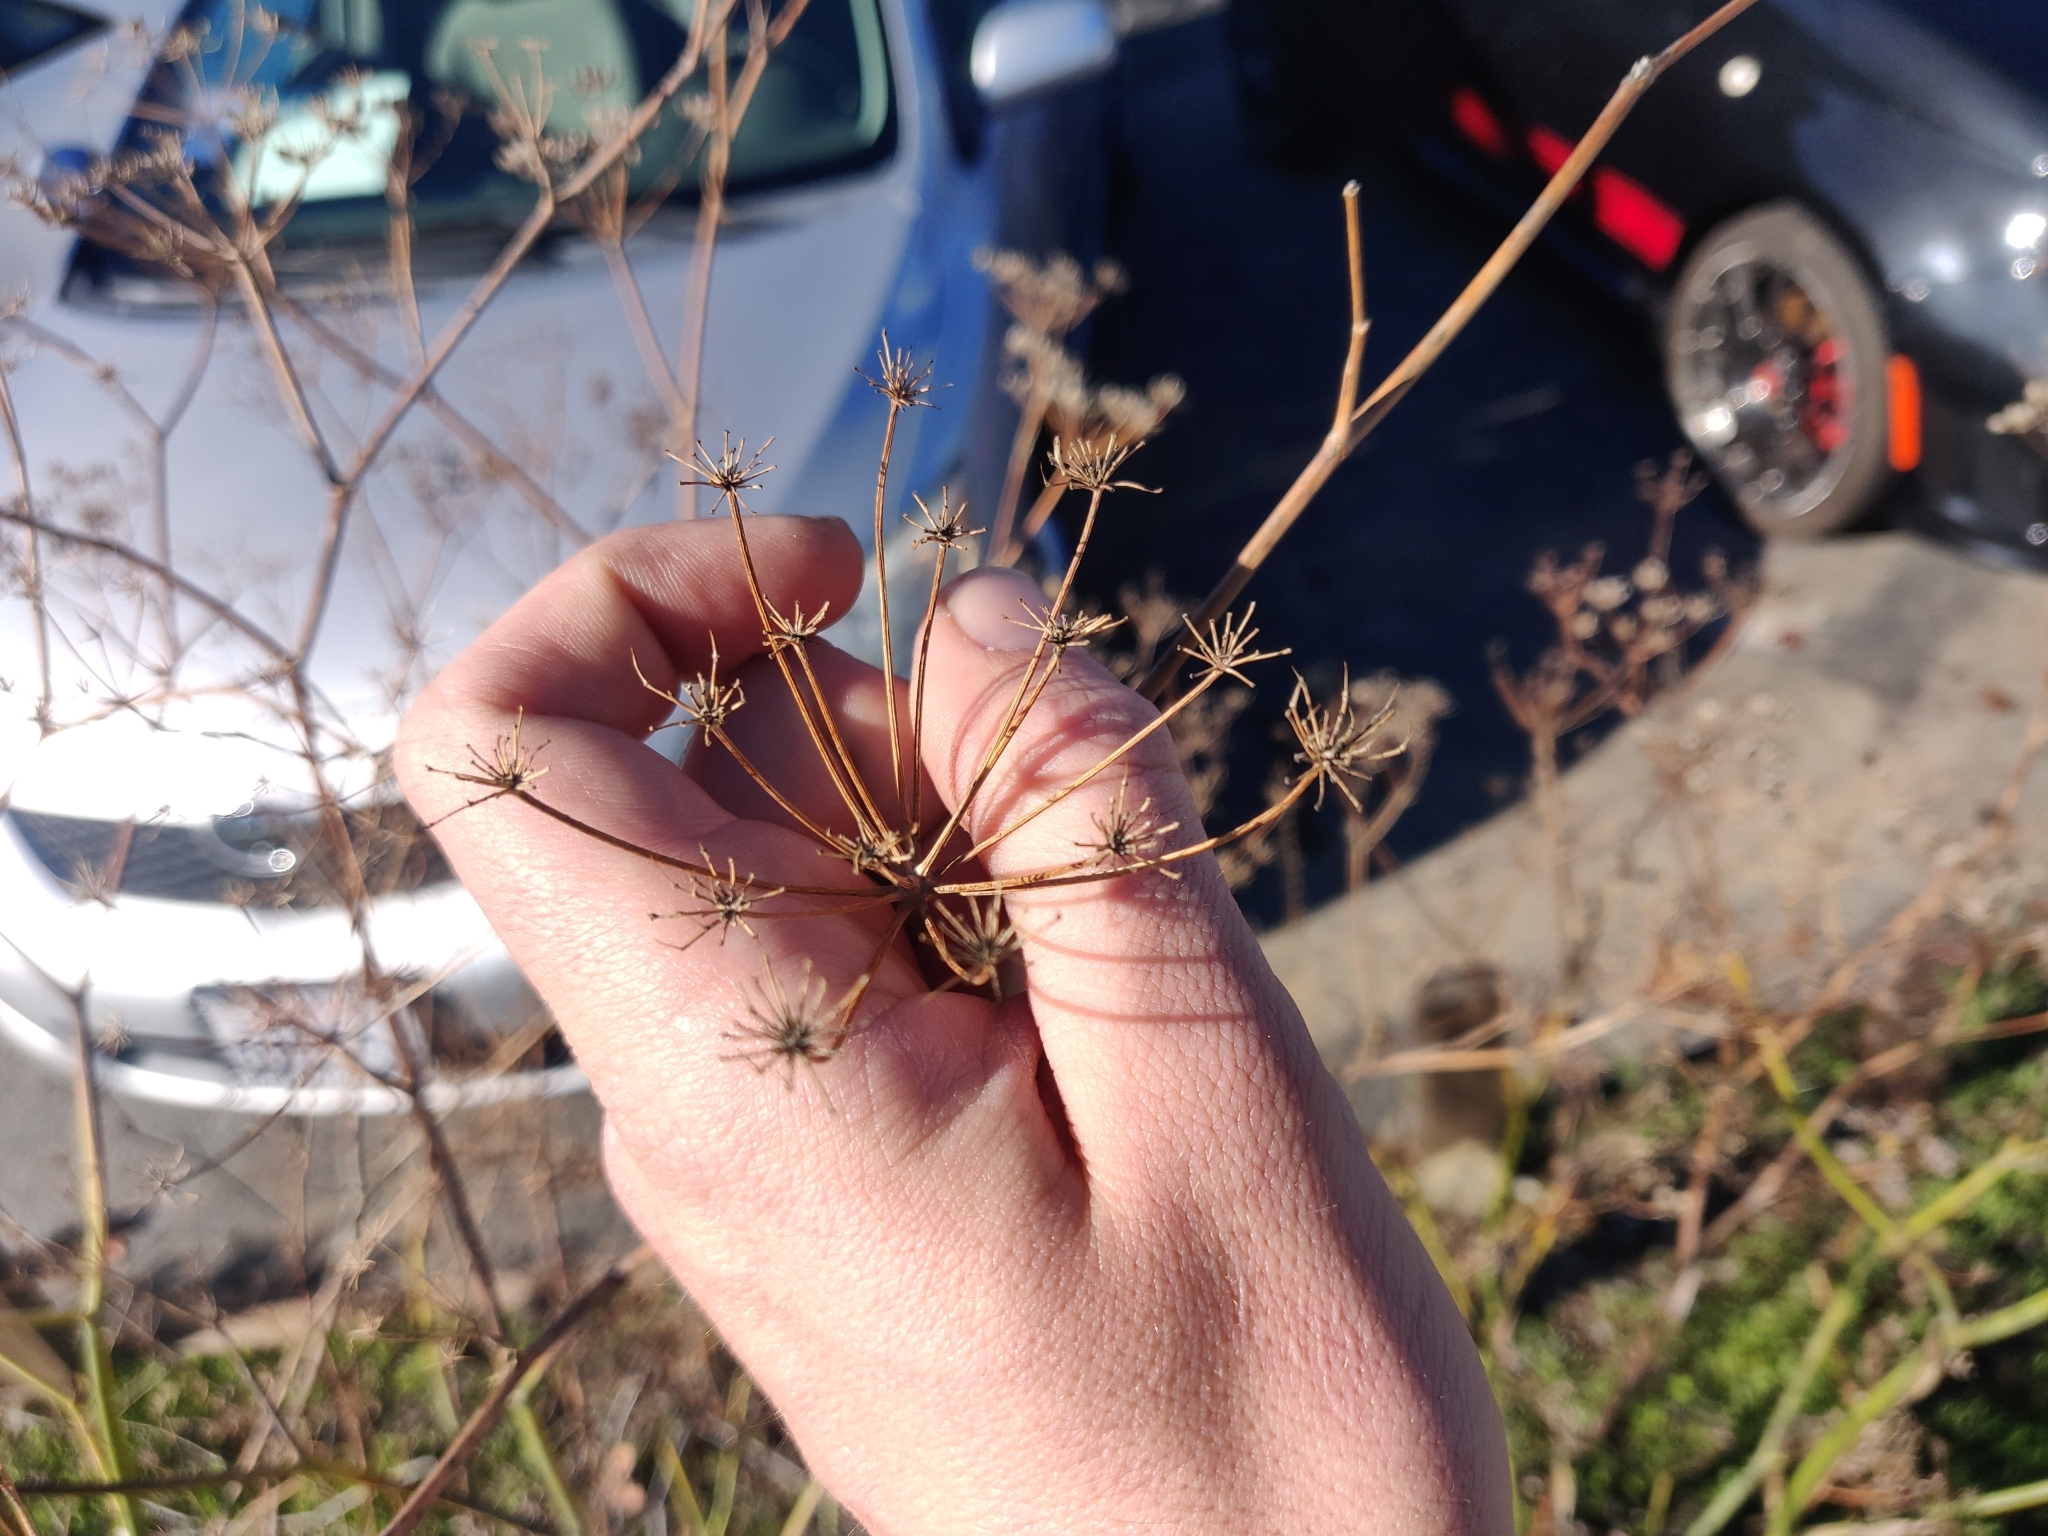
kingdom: Plantae
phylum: Tracheophyta
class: Magnoliopsida
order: Apiales
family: Apiaceae
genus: Foeniculum
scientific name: Foeniculum vulgare
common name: Fennel
